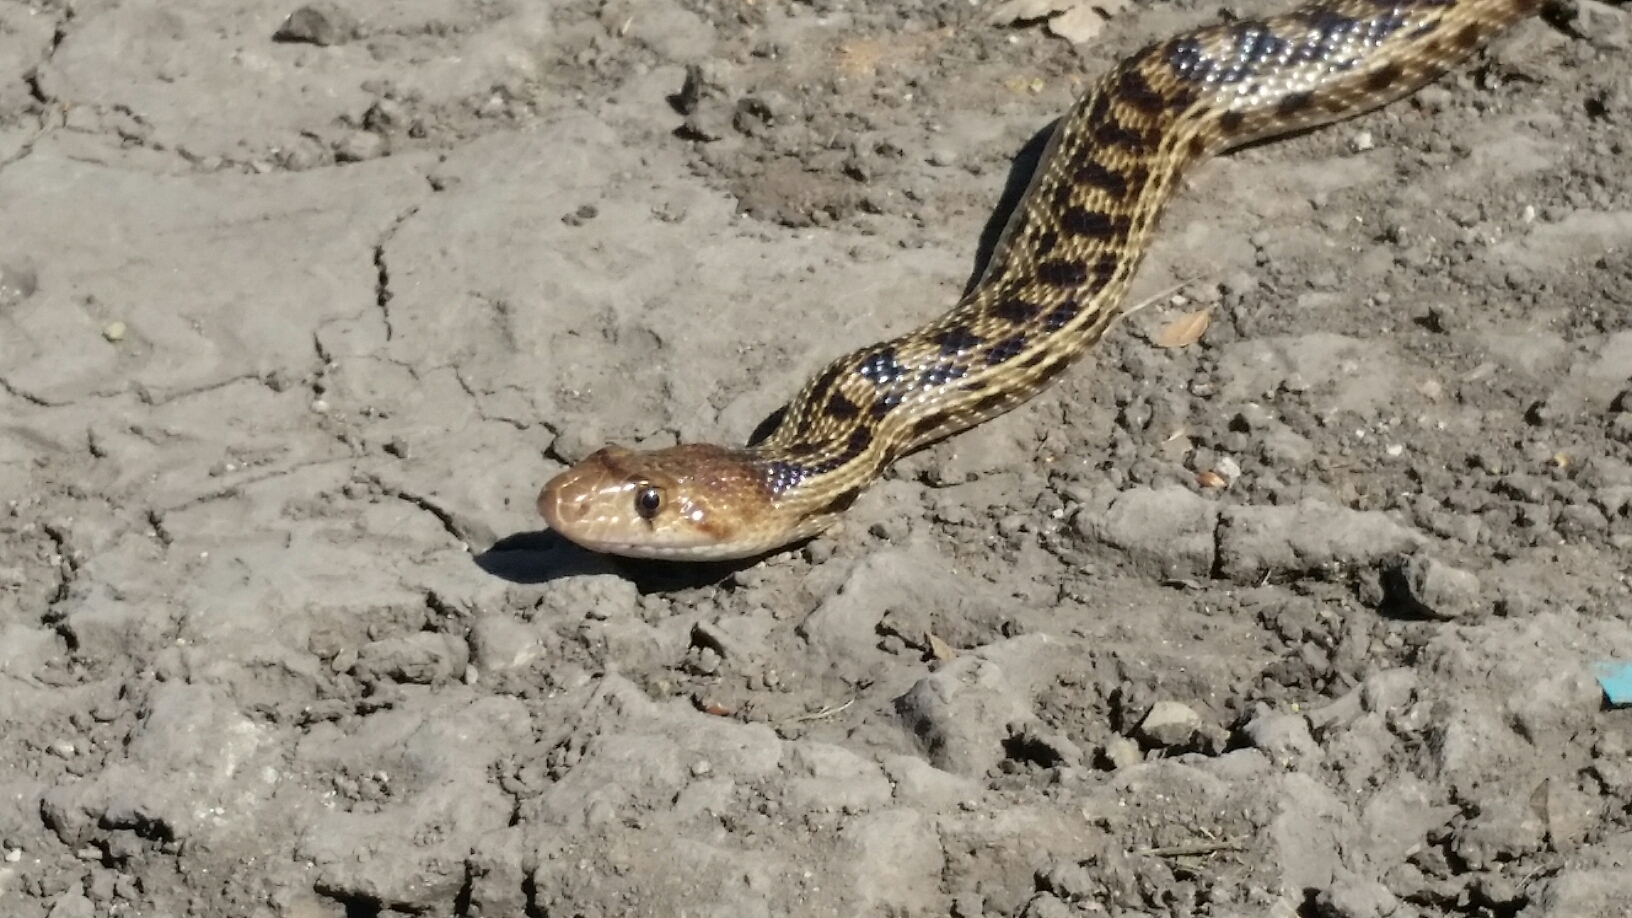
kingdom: Animalia
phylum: Chordata
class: Squamata
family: Colubridae
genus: Pituophis
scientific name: Pituophis catenifer
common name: Gopher snake
